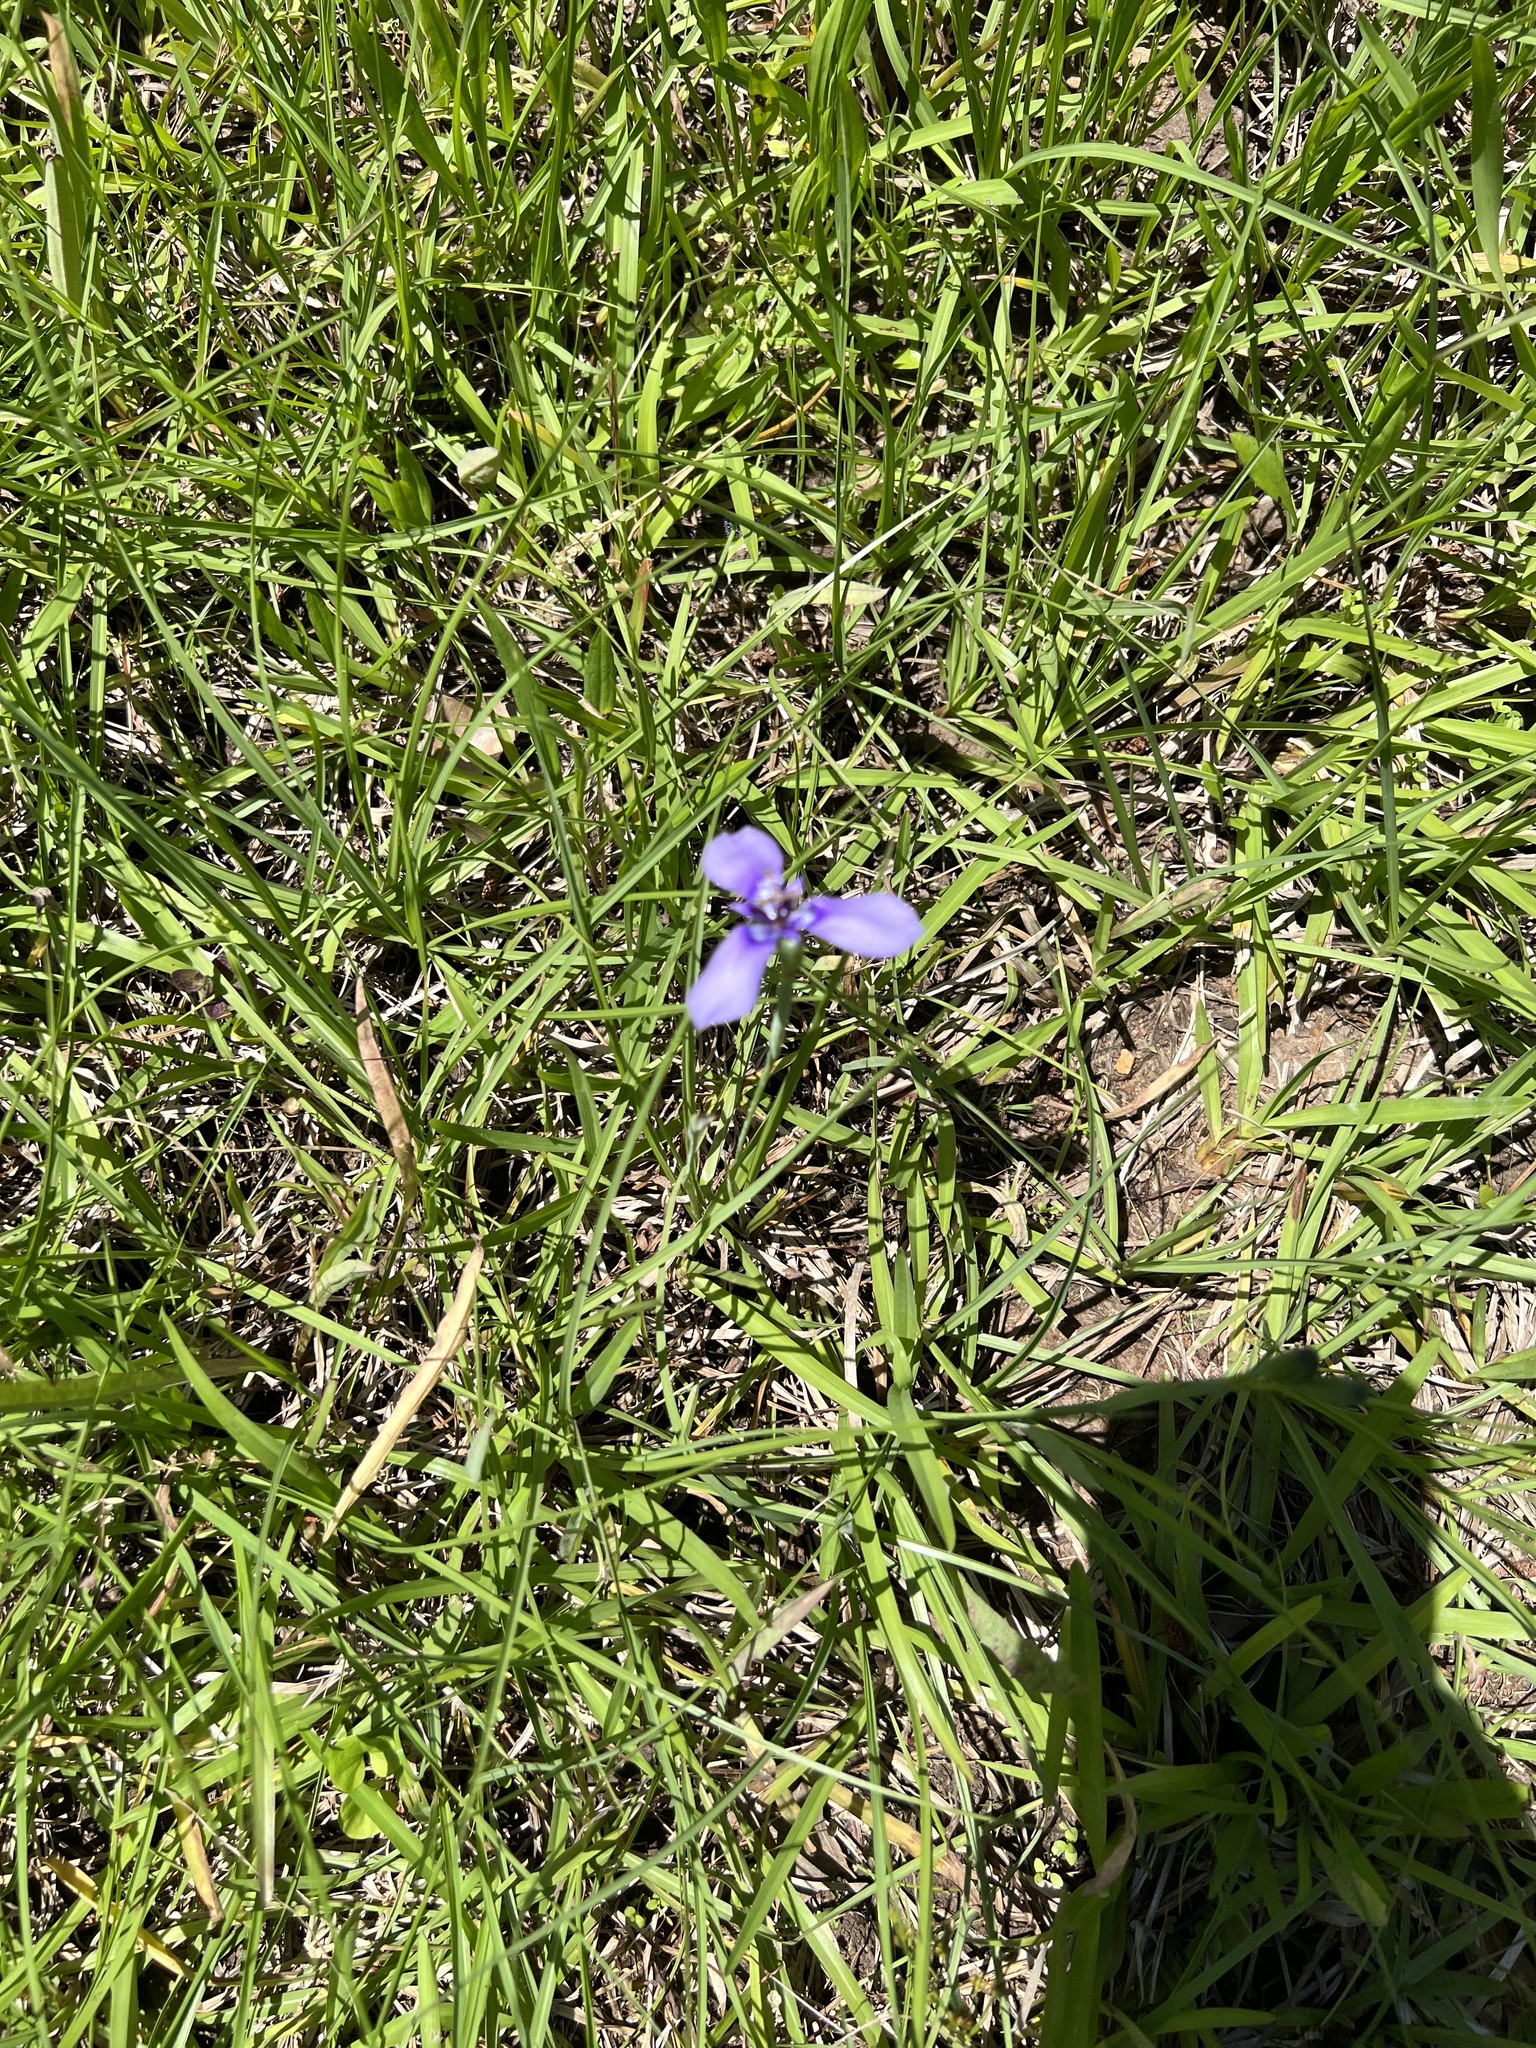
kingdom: Plantae
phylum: Tracheophyta
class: Liliopsida
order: Asparagales
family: Iridaceae
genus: Herbertia
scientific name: Herbertia lahue
